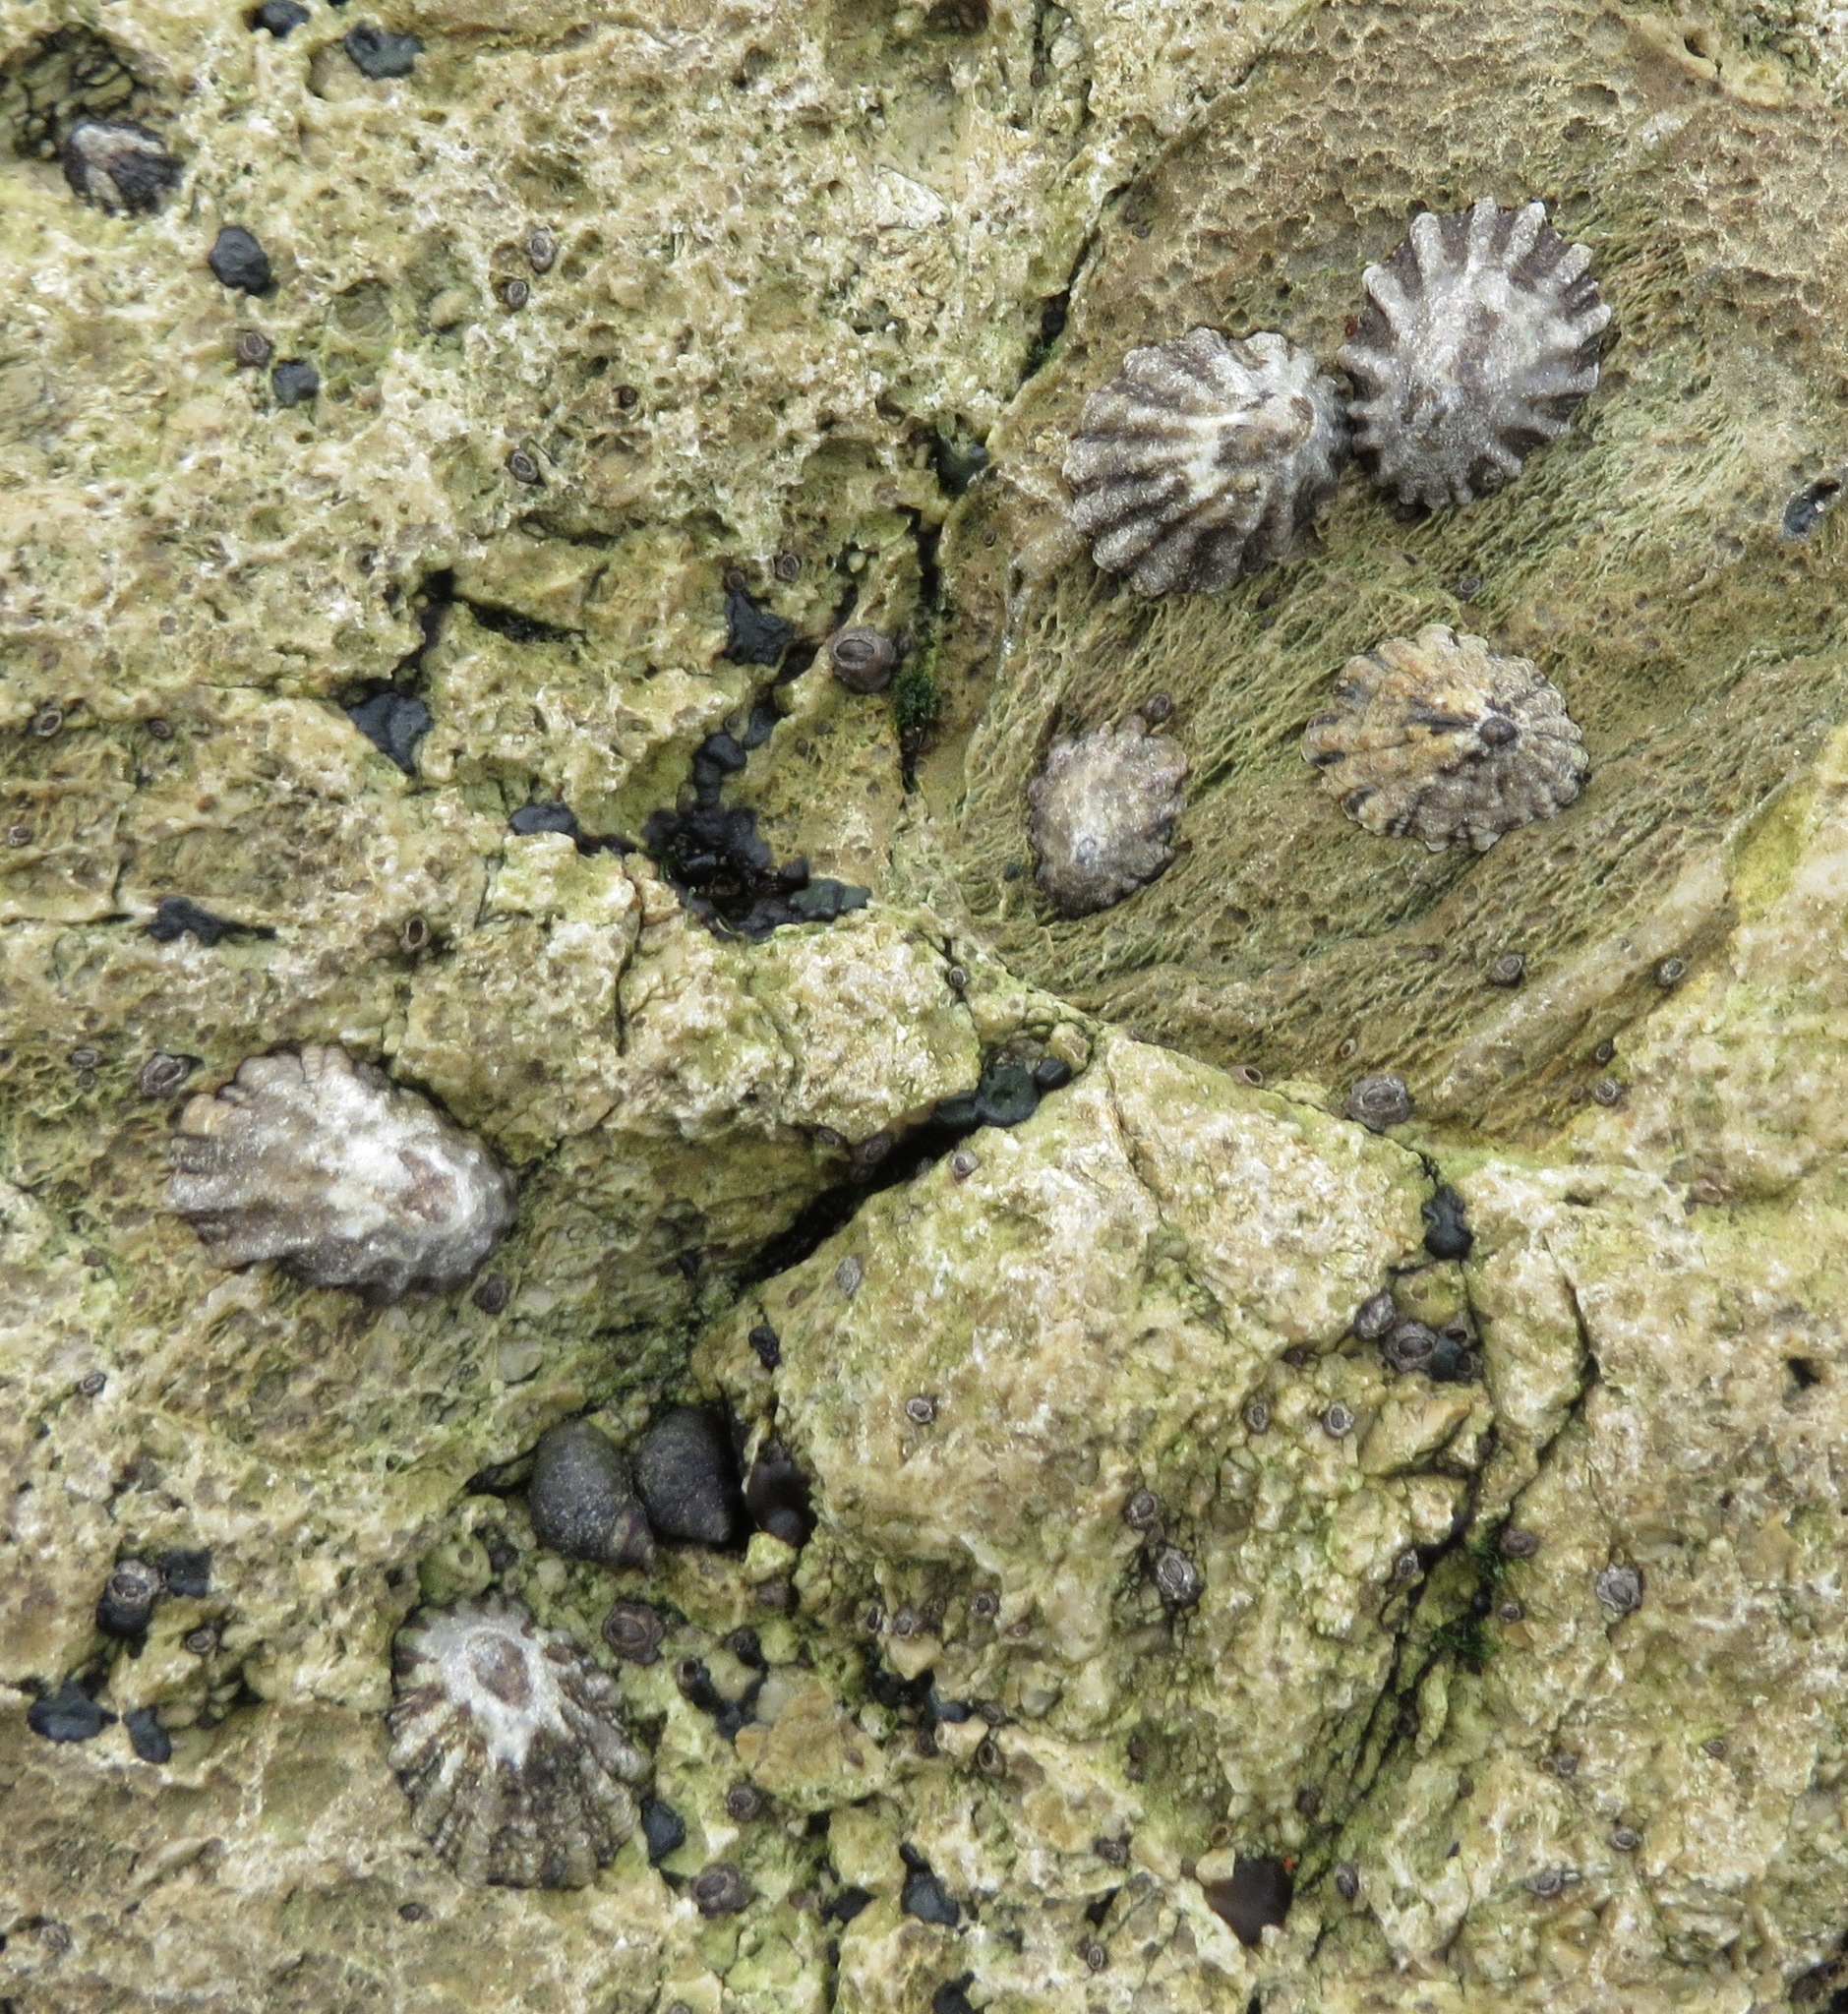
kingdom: Animalia
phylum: Mollusca
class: Gastropoda
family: Lottiidae
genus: Lottia
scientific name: Lottia scabra
